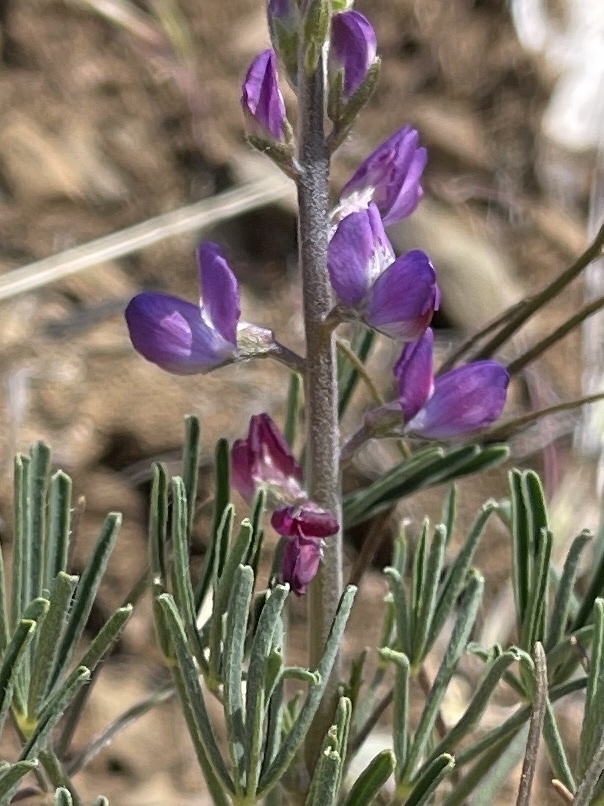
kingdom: Plantae
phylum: Tracheophyta
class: Magnoliopsida
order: Fabales
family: Fabaceae
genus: Lupinus
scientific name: Lupinus truncatus
